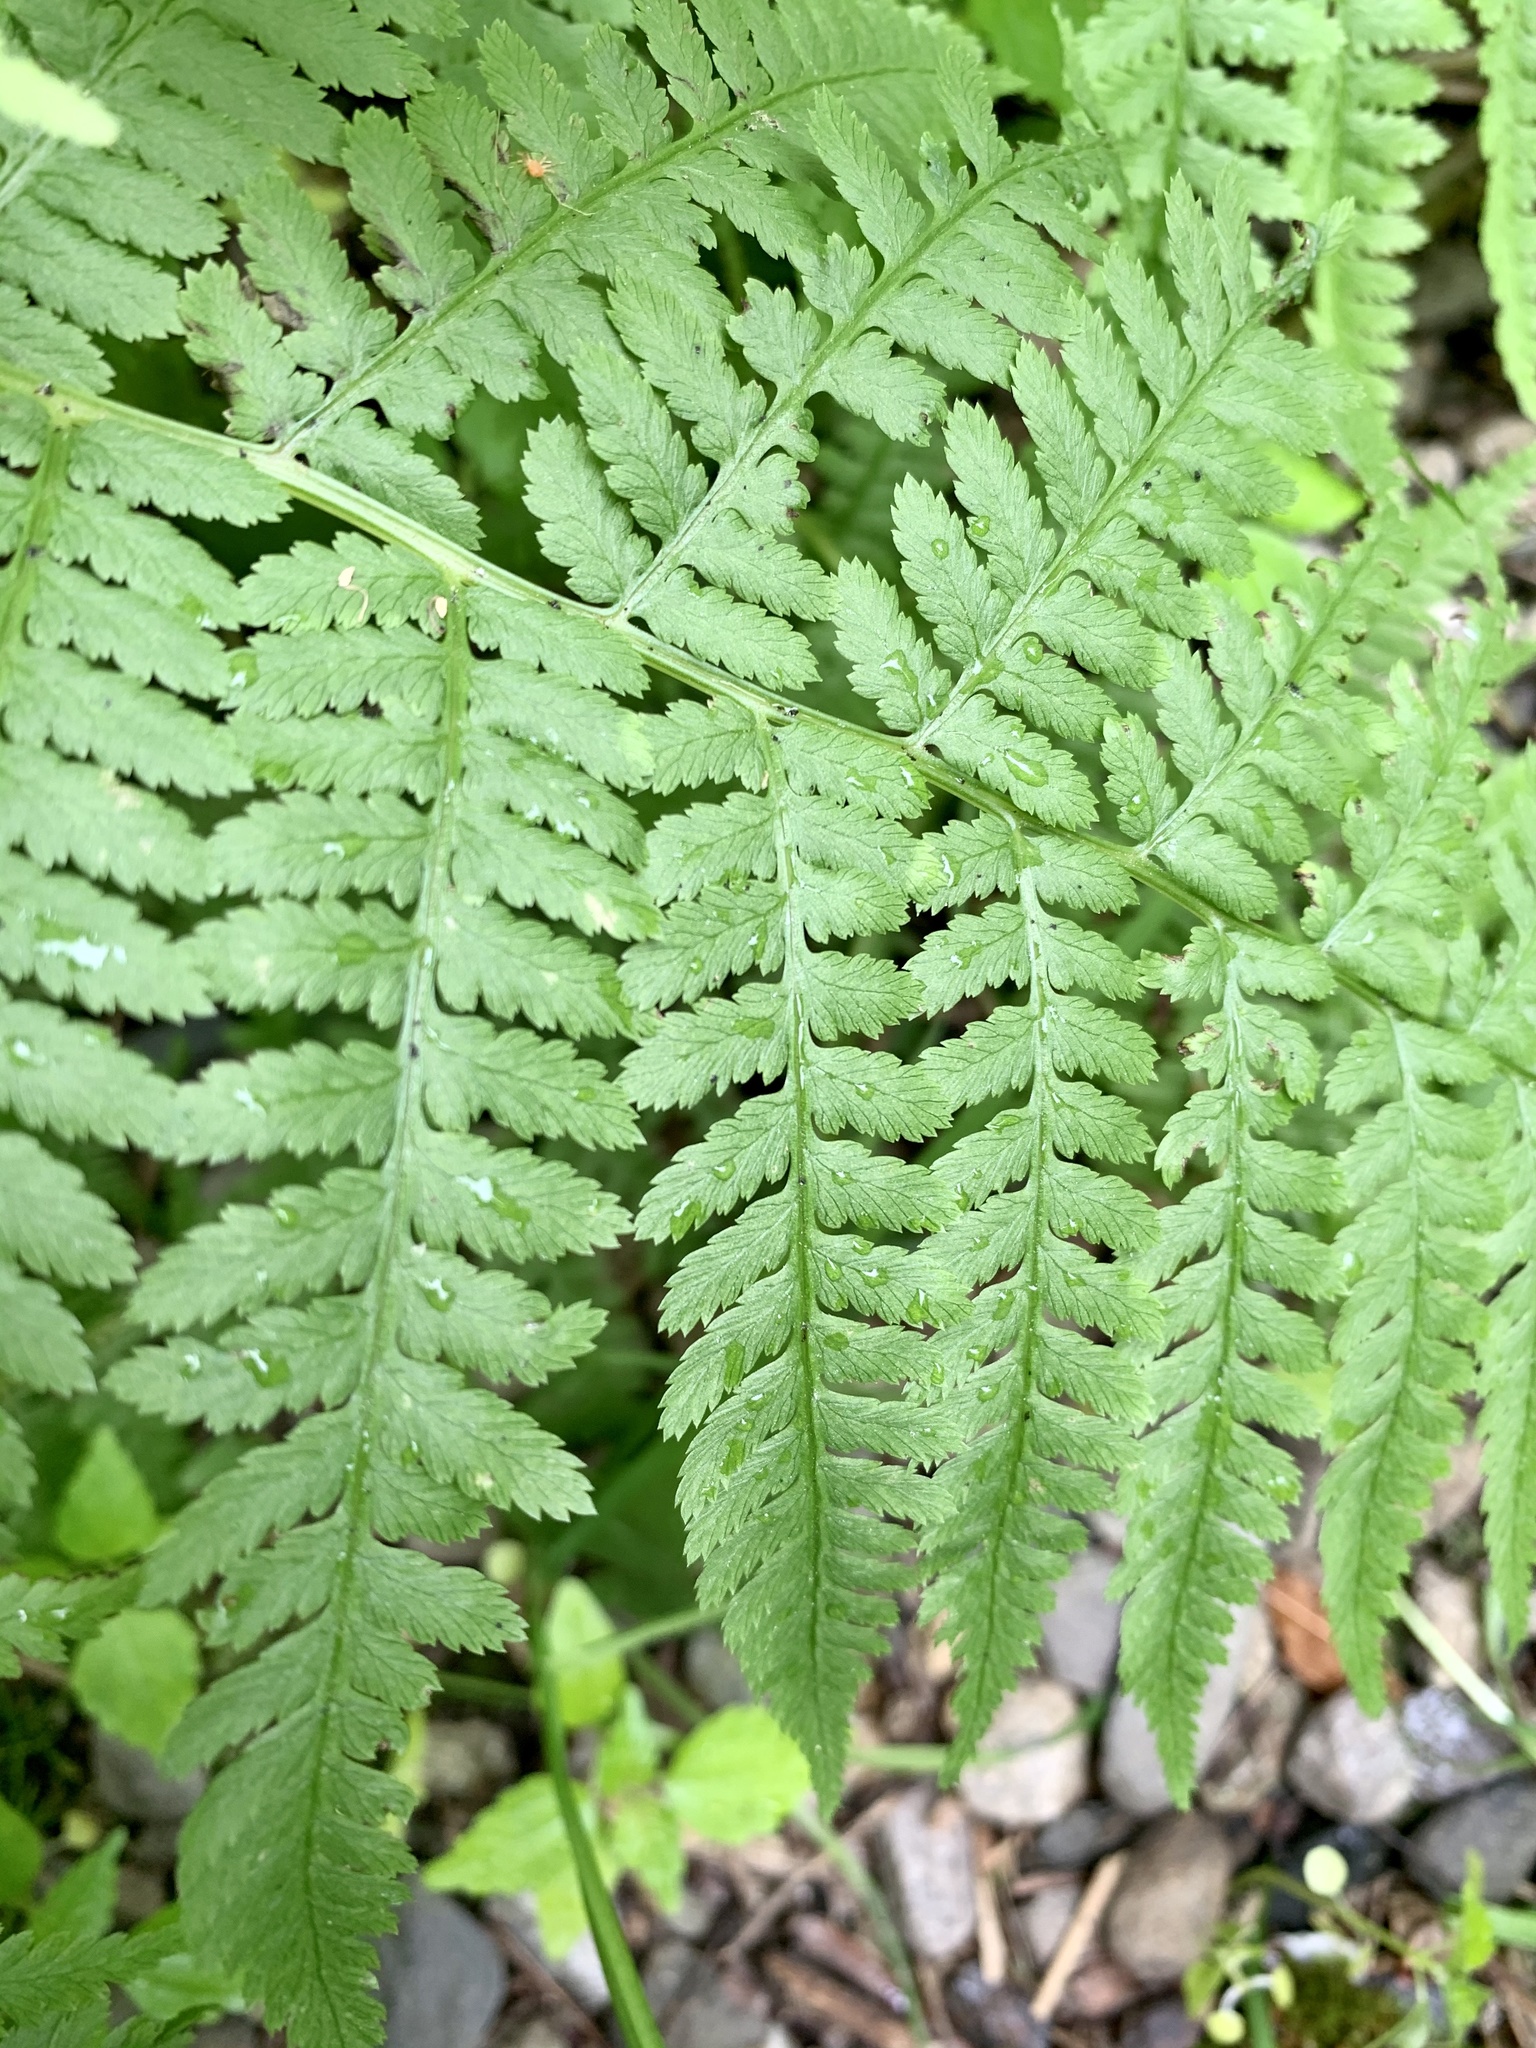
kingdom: Plantae
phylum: Tracheophyta
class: Polypodiopsida
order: Polypodiales
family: Athyriaceae
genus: Athyrium
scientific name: Athyrium angustum
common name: Northern lady fern
